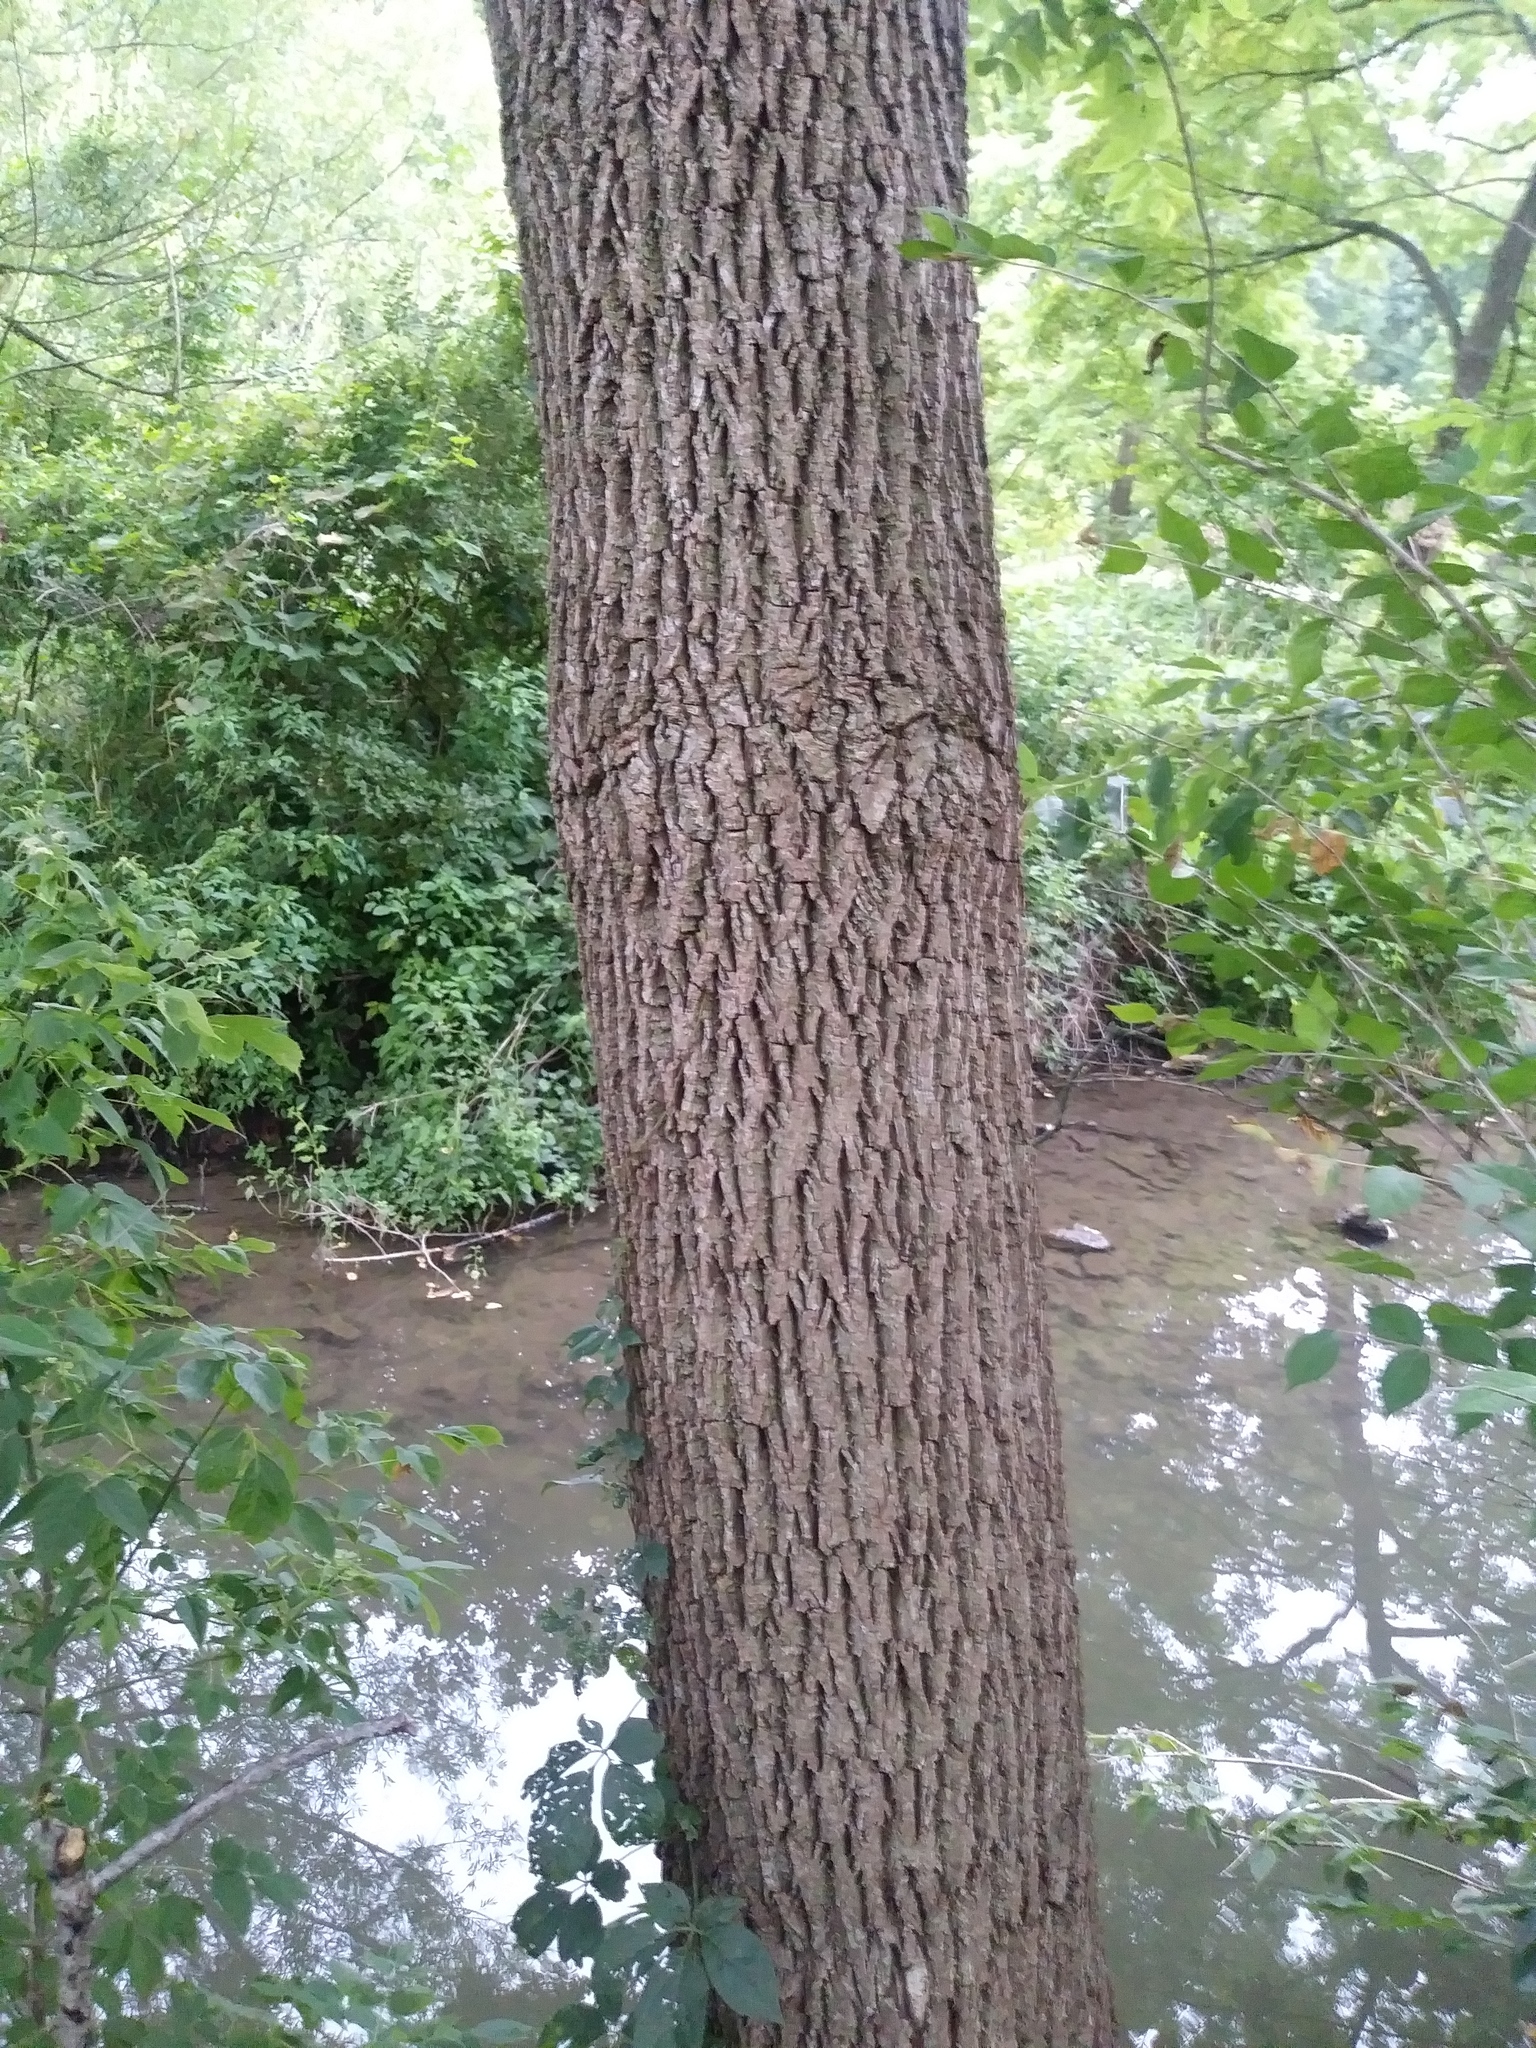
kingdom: Plantae
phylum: Tracheophyta
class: Magnoliopsida
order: Fagales
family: Juglandaceae
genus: Juglans
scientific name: Juglans nigra
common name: Black walnut
